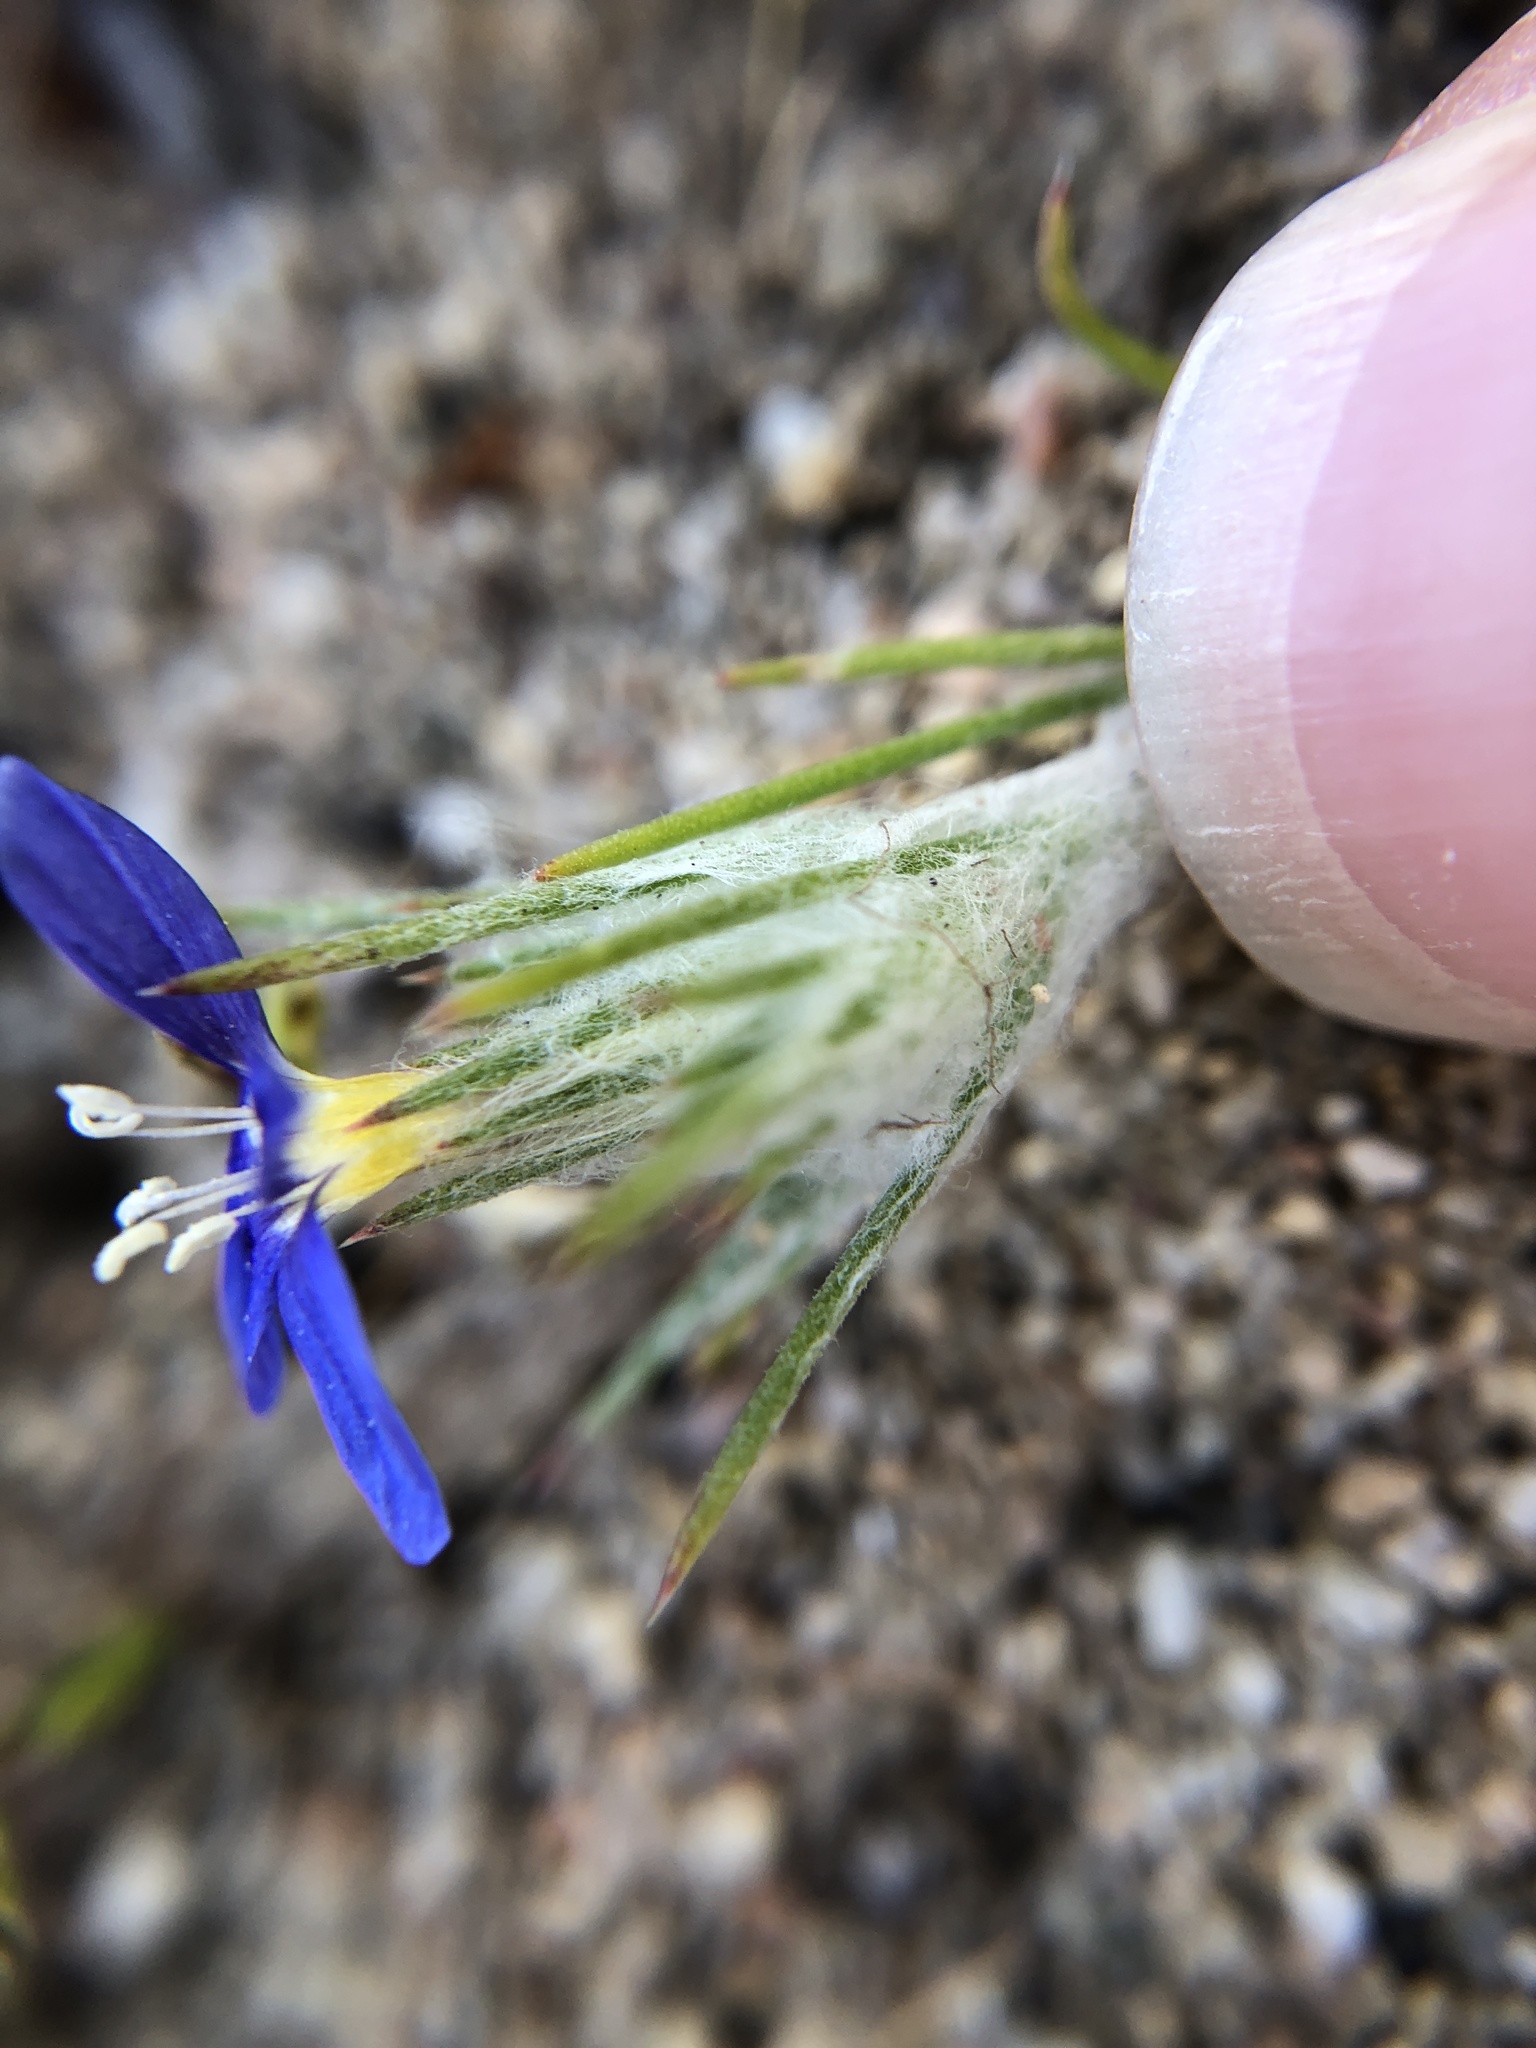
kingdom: Plantae
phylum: Tracheophyta
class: Magnoliopsida
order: Ericales
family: Polemoniaceae
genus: Eriastrum
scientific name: Eriastrum virgatum
